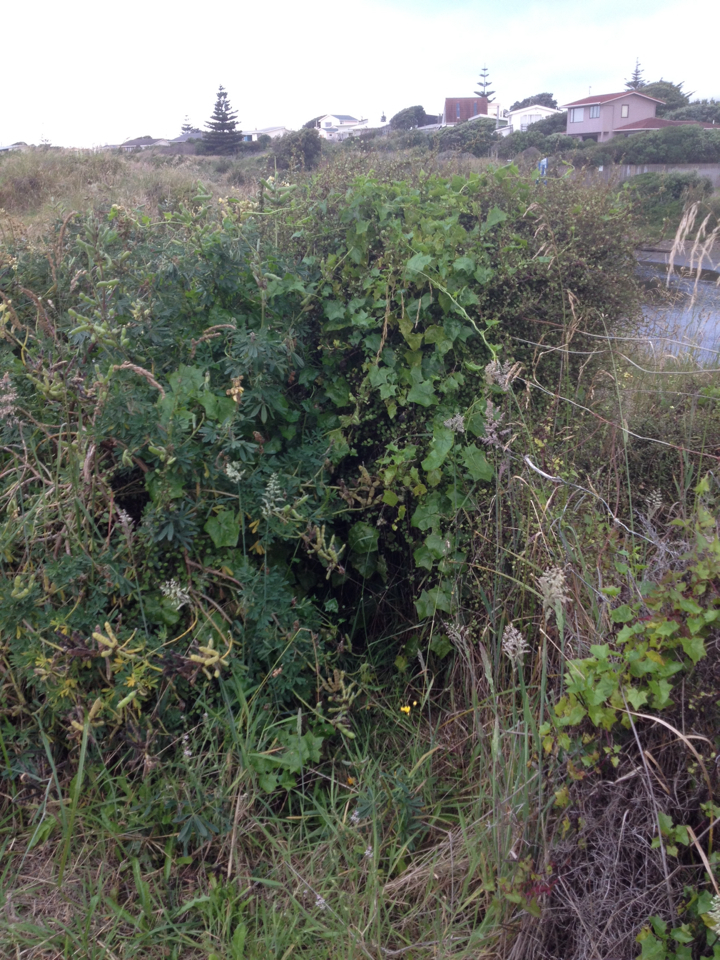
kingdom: Plantae
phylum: Tracheophyta
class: Magnoliopsida
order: Asterales
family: Asteraceae
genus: Delairea
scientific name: Delairea odorata
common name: Cape-ivy
